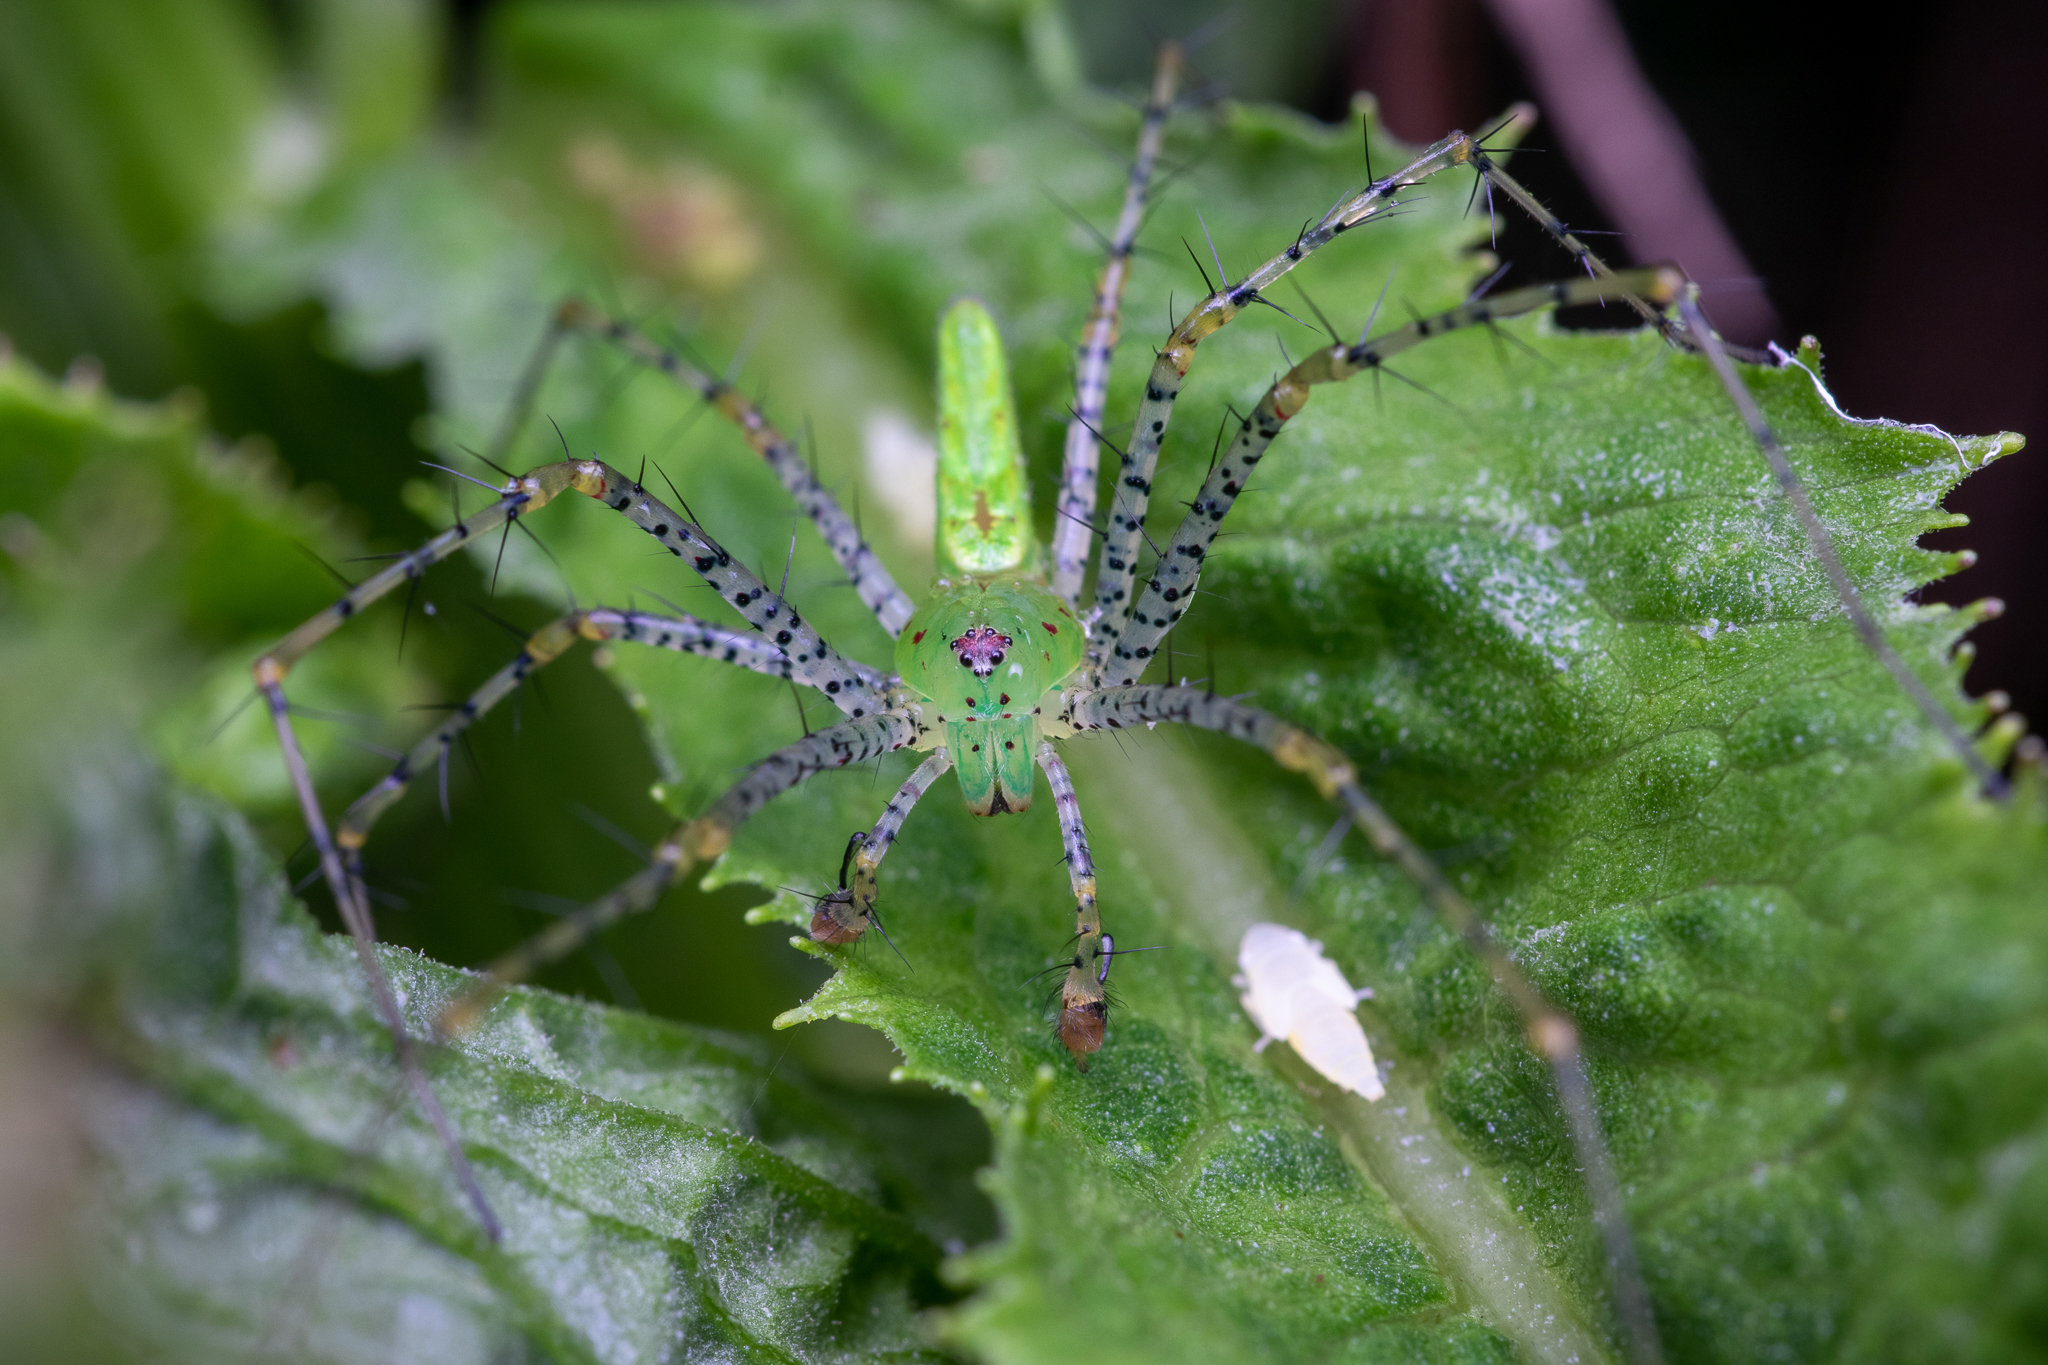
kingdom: Animalia
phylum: Arthropoda
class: Arachnida
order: Araneae
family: Oxyopidae
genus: Peucetia
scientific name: Peucetia viridans
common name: Lynx spiders
